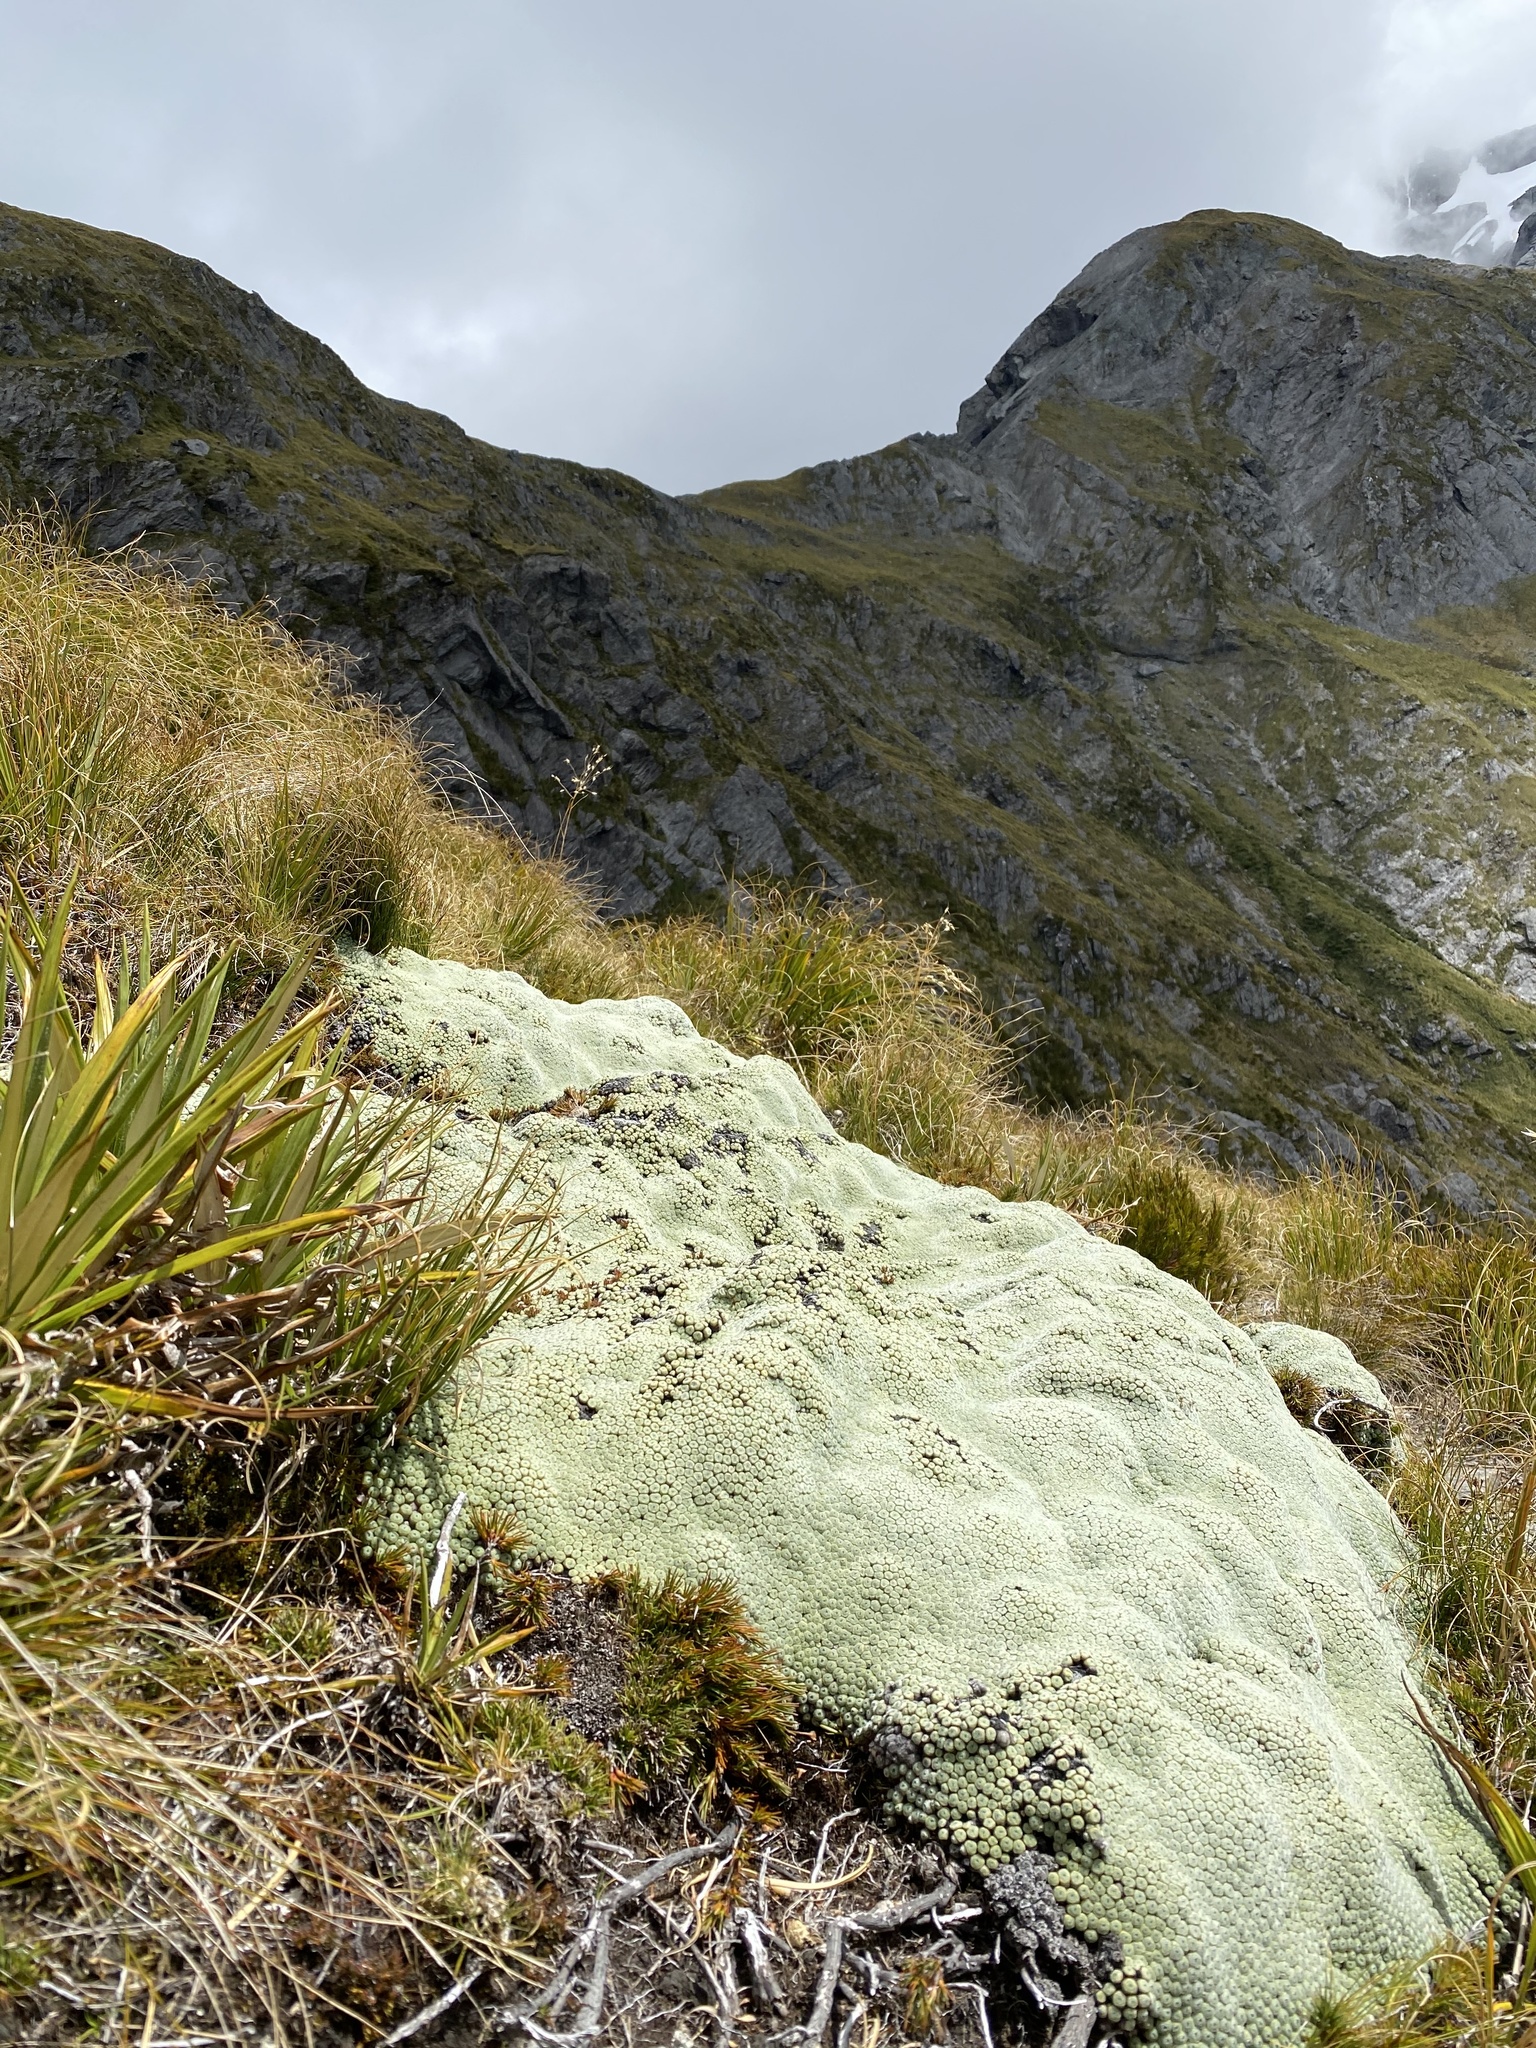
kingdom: Plantae
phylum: Tracheophyta
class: Magnoliopsida
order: Asterales
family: Asteraceae
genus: Raoulia
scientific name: Raoulia buchananii
